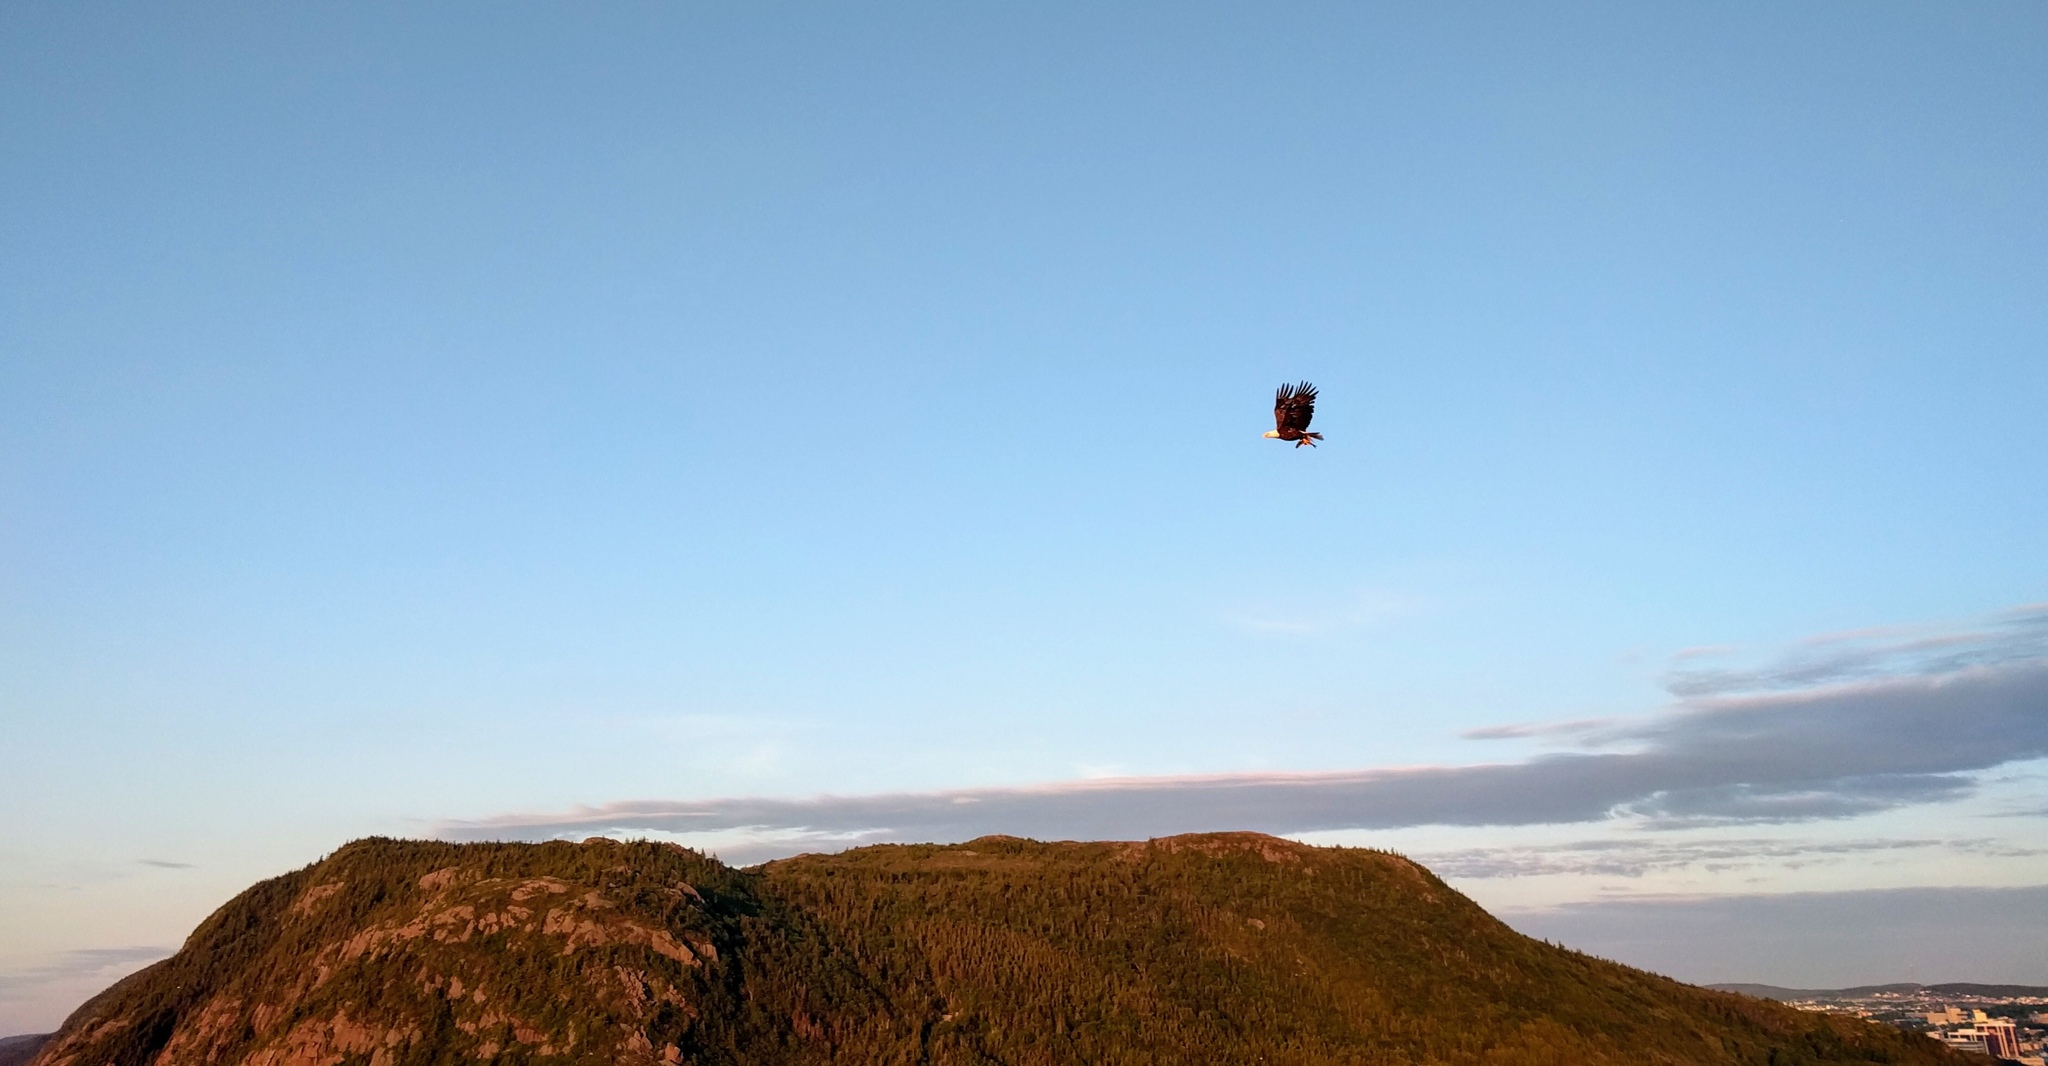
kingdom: Animalia
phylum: Chordata
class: Aves
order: Accipitriformes
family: Accipitridae
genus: Haliaeetus
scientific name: Haliaeetus leucocephalus
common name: Bald eagle
